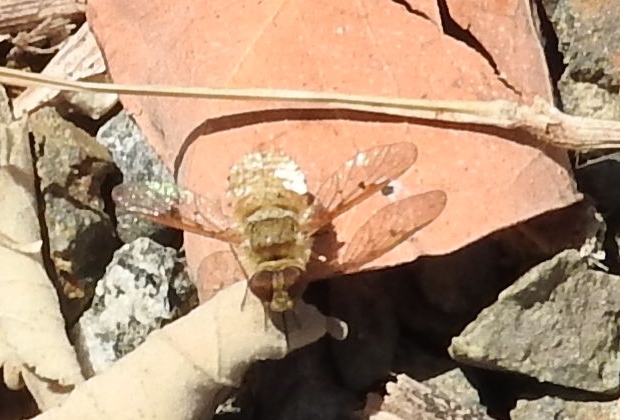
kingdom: Animalia
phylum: Arthropoda
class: Insecta
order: Diptera
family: Bombyliidae
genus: Lepidanthrax
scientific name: Lepidanthrax
